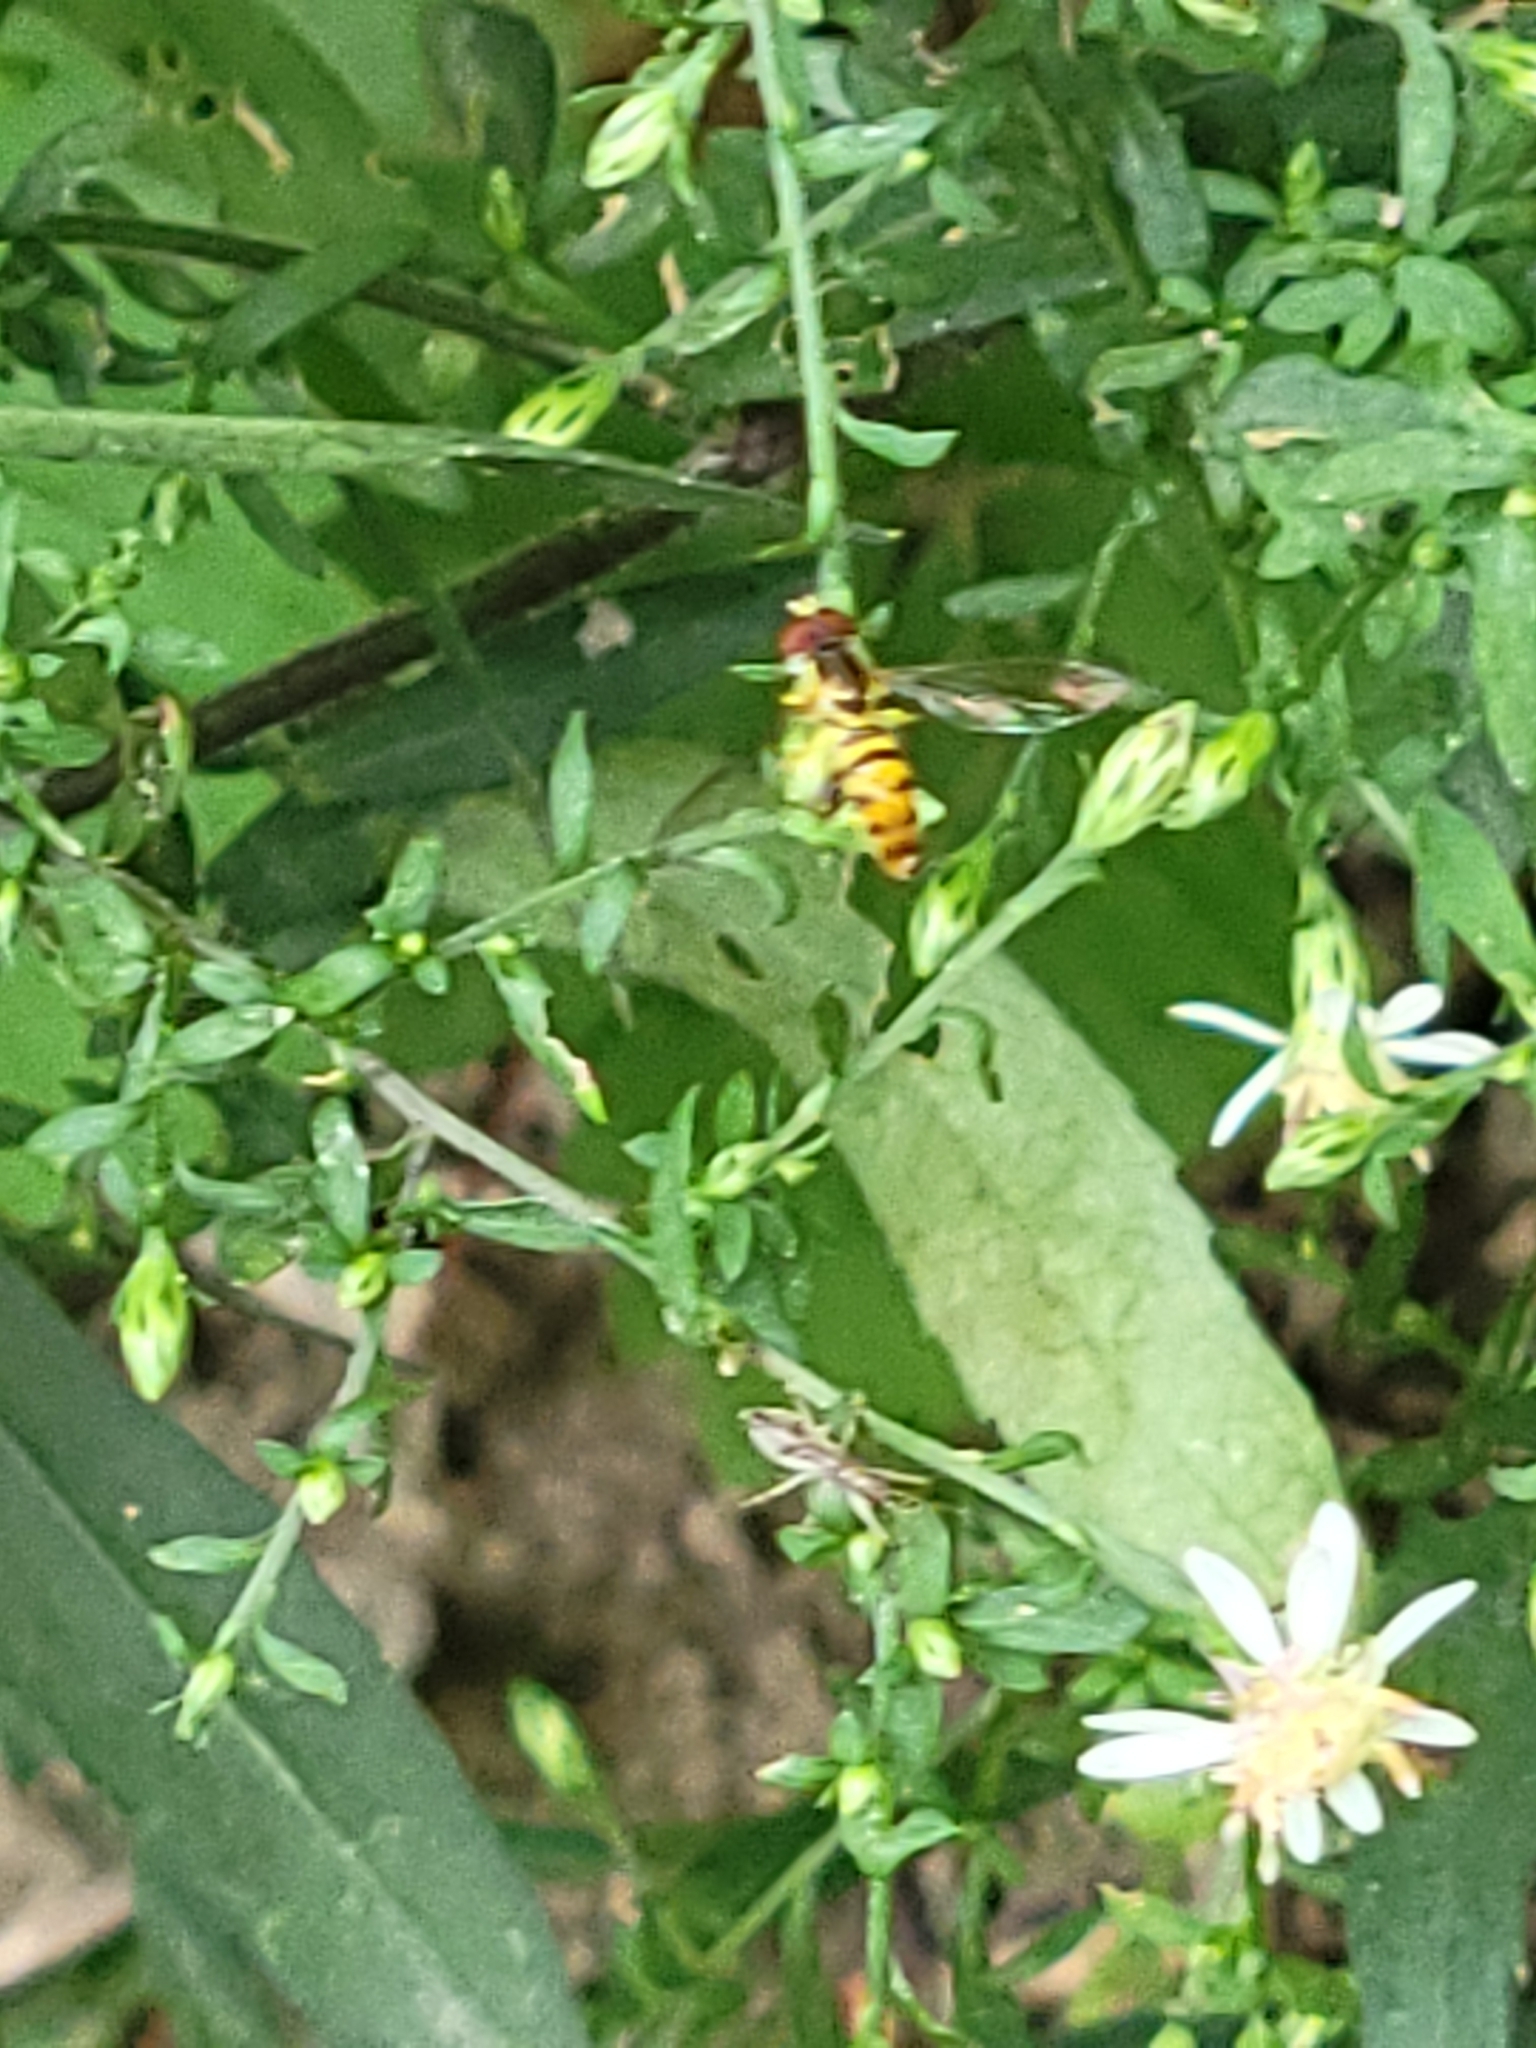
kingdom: Animalia
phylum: Arthropoda
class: Insecta
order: Diptera
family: Syrphidae
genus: Toxomerus
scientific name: Toxomerus geminatus
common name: Eastern calligrapher
